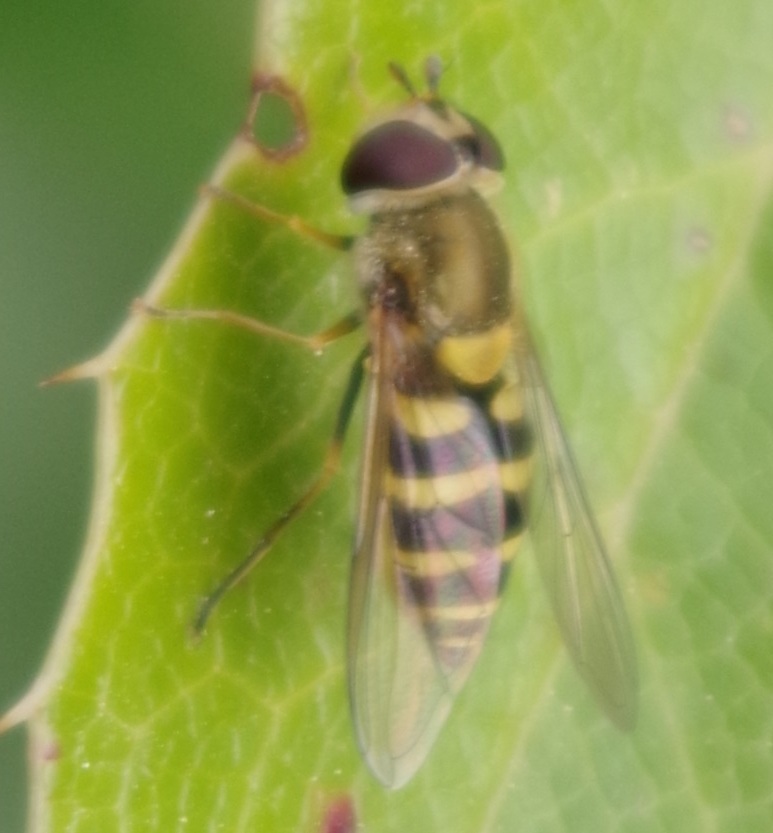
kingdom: Animalia
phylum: Arthropoda
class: Insecta
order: Diptera
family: Syrphidae
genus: Syrphus
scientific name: Syrphus
